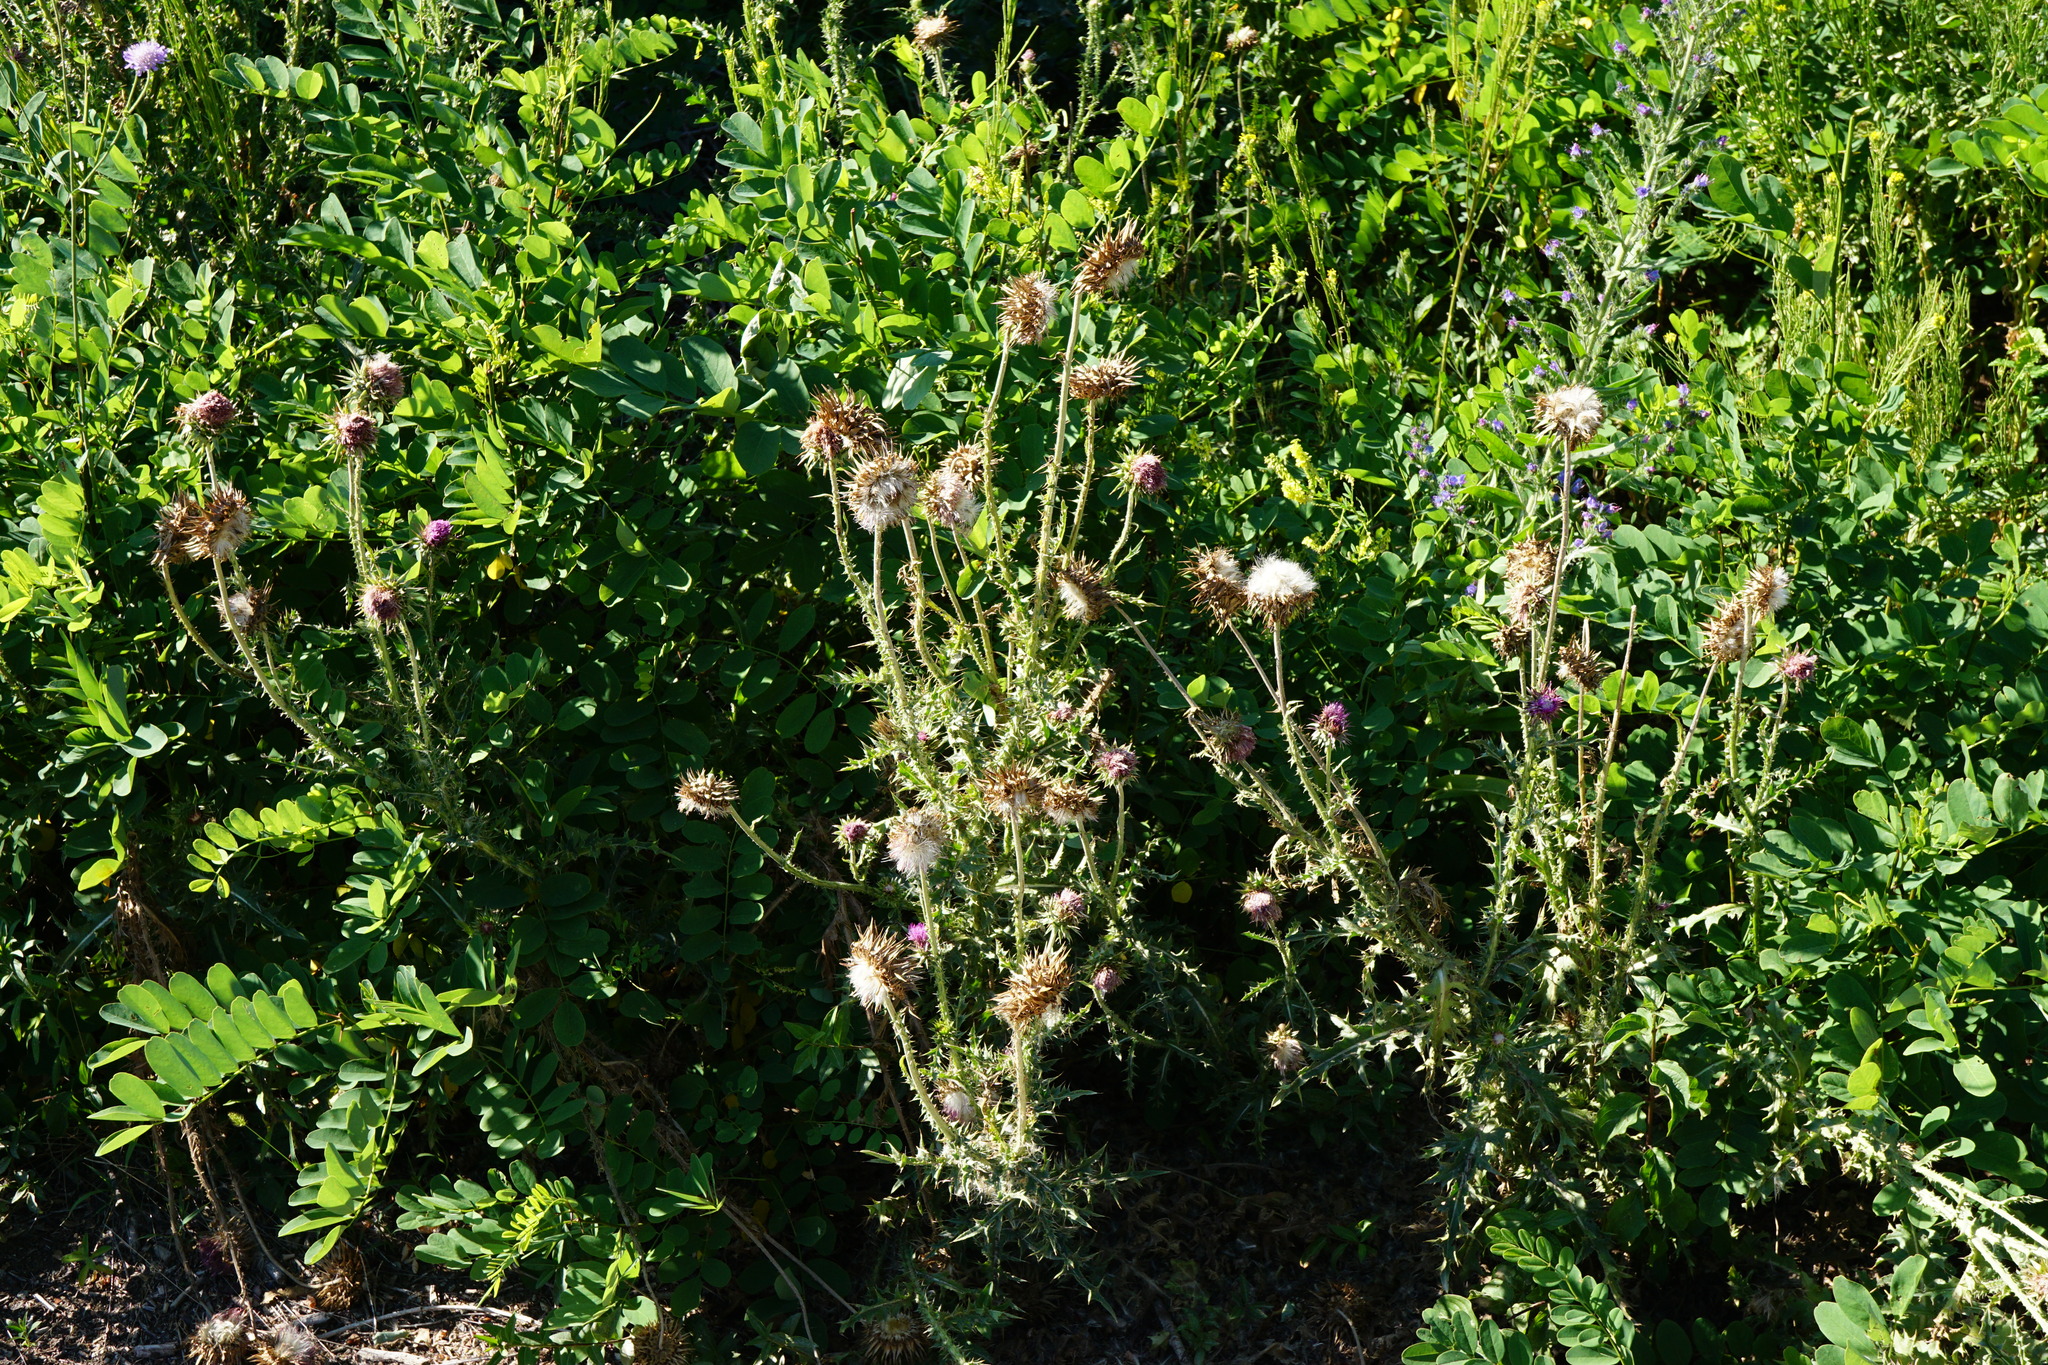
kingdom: Plantae
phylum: Tracheophyta
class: Magnoliopsida
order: Asterales
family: Asteraceae
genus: Carduus
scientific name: Carduus nutans
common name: Musk thistle
